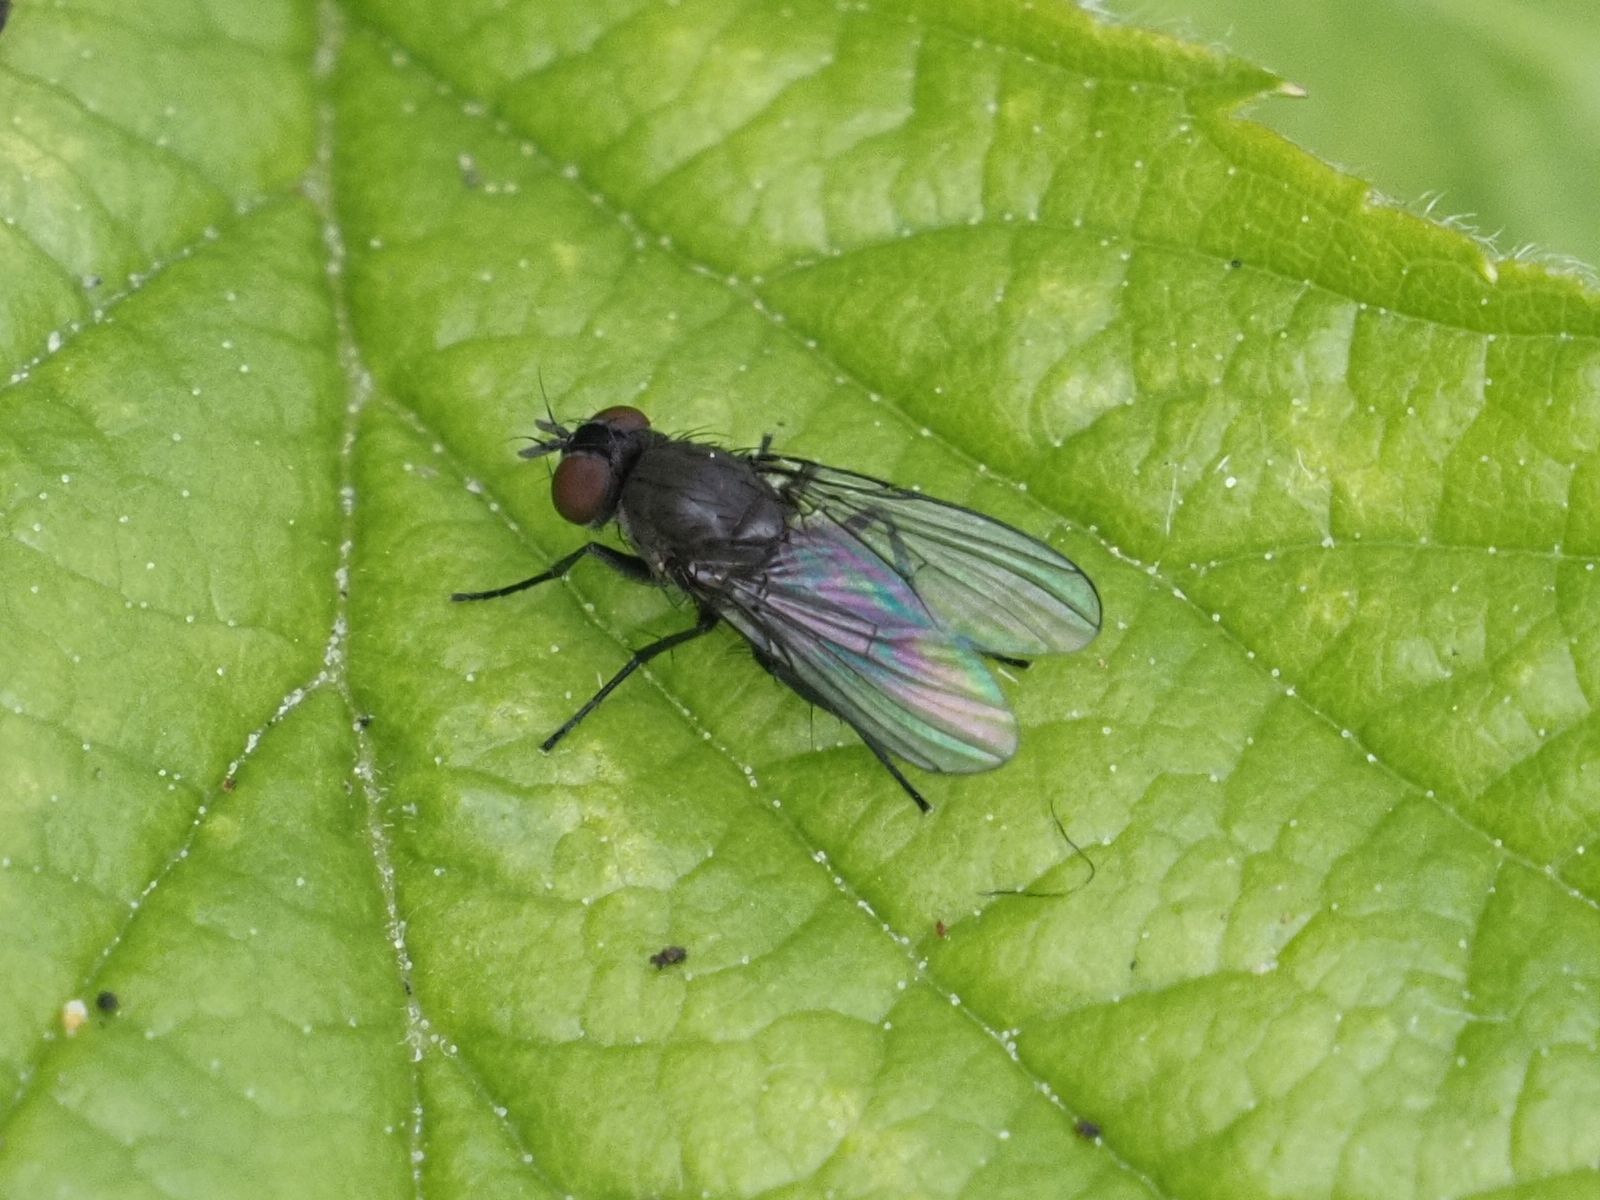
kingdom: Animalia
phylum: Arthropoda
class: Insecta
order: Diptera
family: Muscidae
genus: Coenosia
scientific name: Coenosia agromyzina
